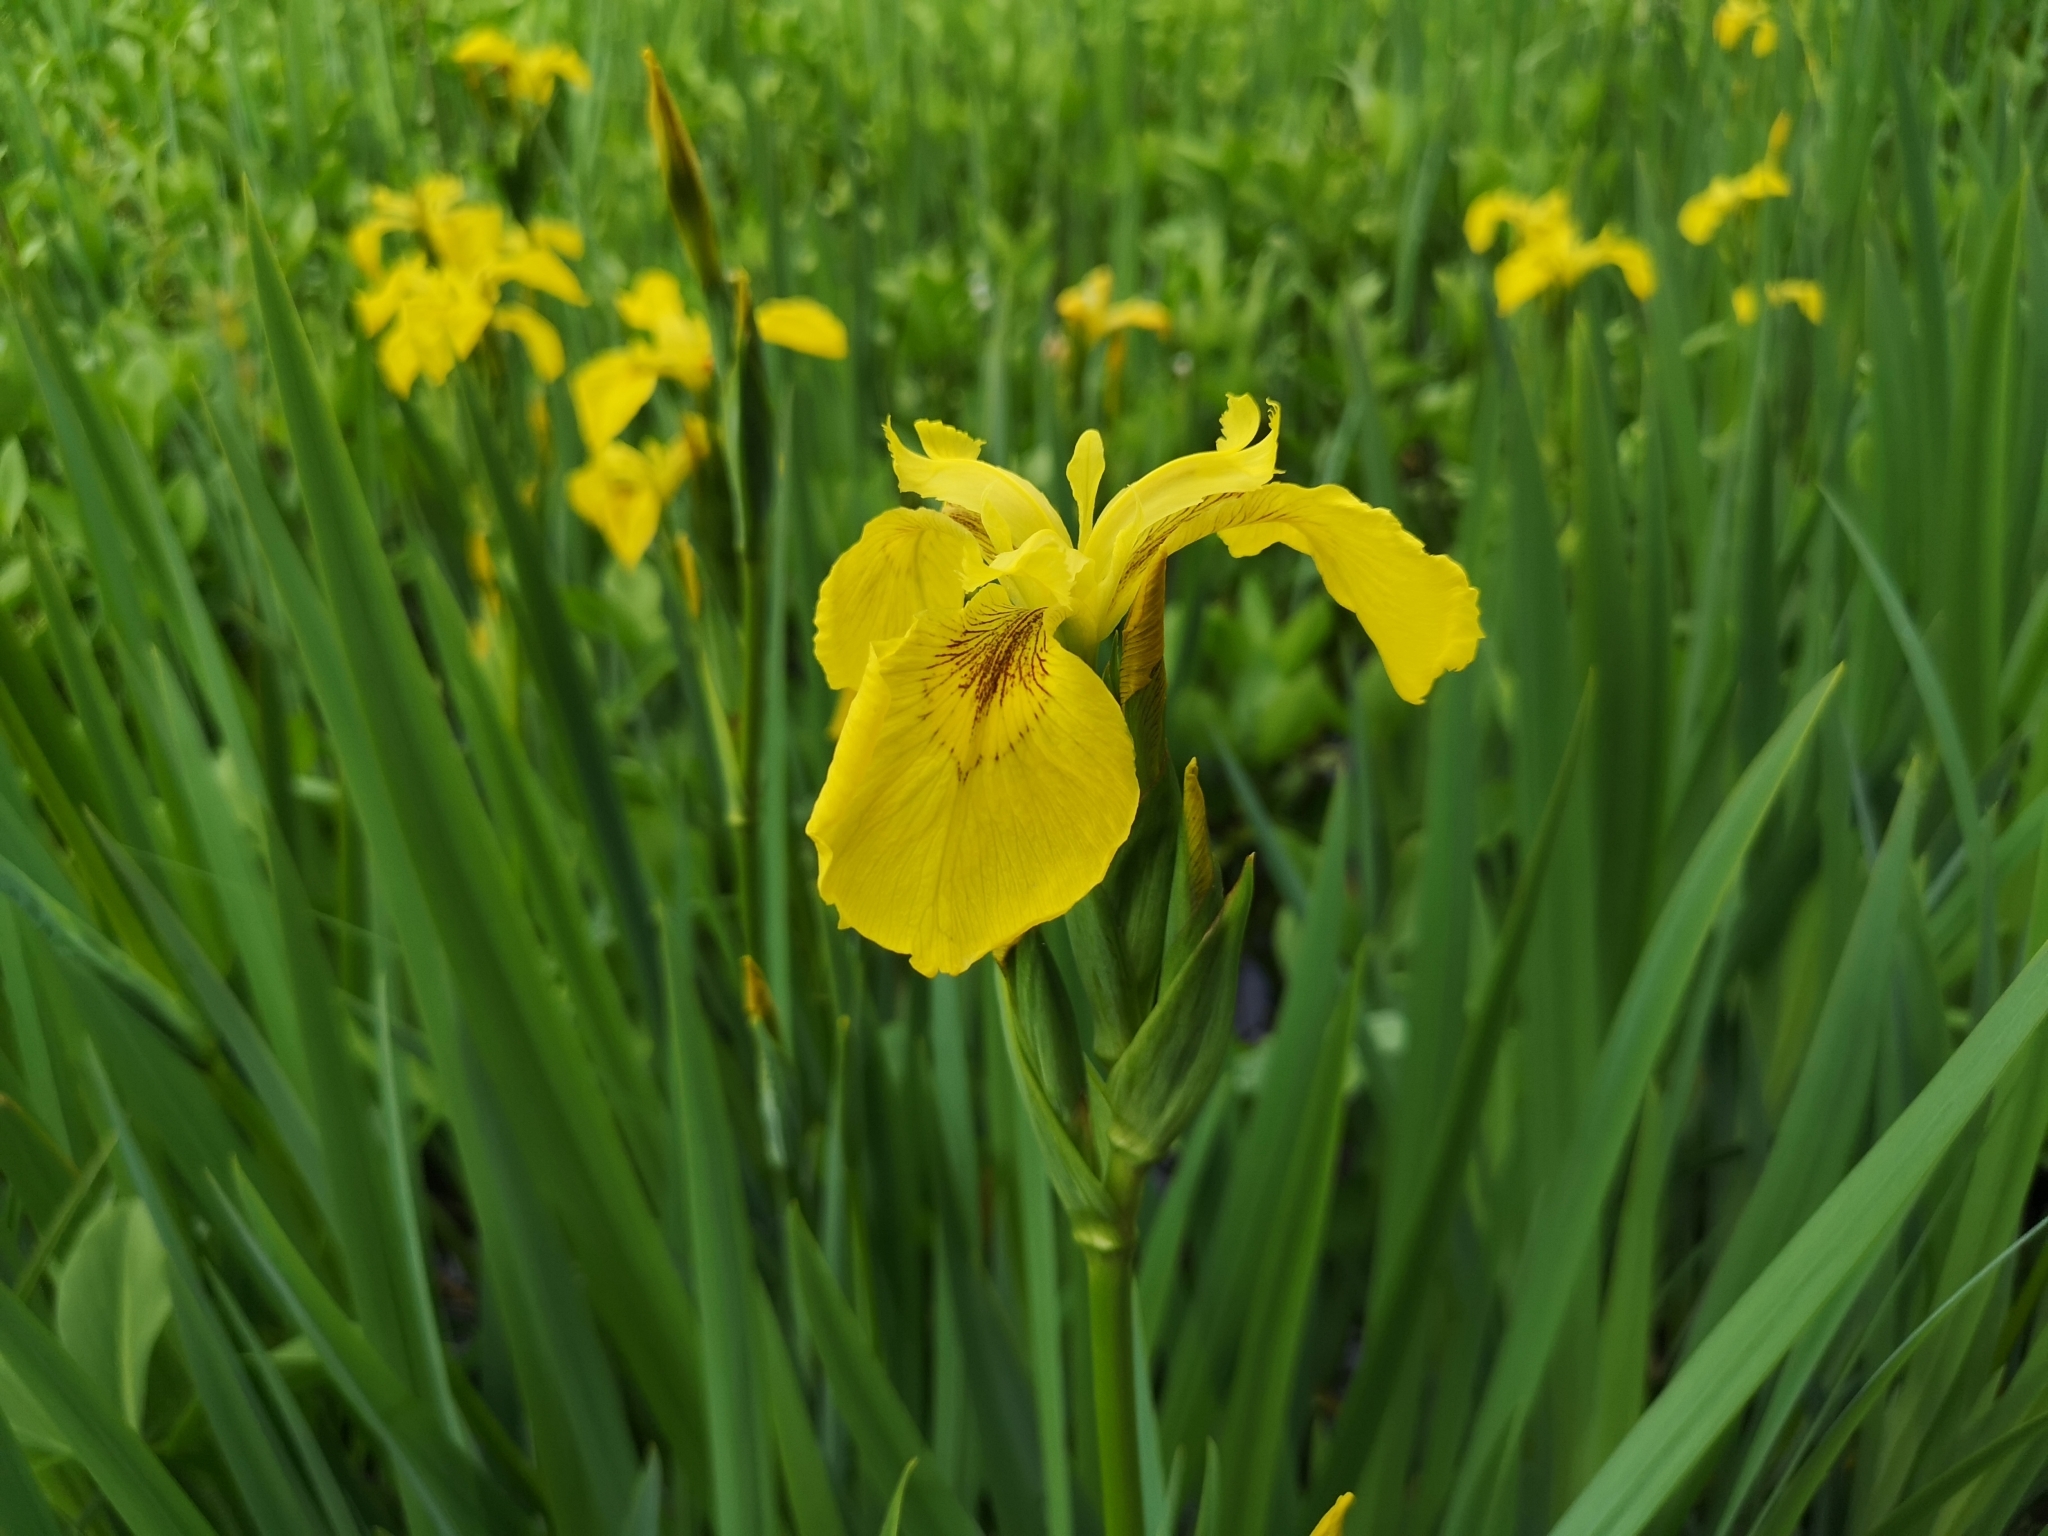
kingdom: Plantae
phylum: Tracheophyta
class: Liliopsida
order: Asparagales
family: Iridaceae
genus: Iris
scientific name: Iris pseudacorus
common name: Yellow flag
